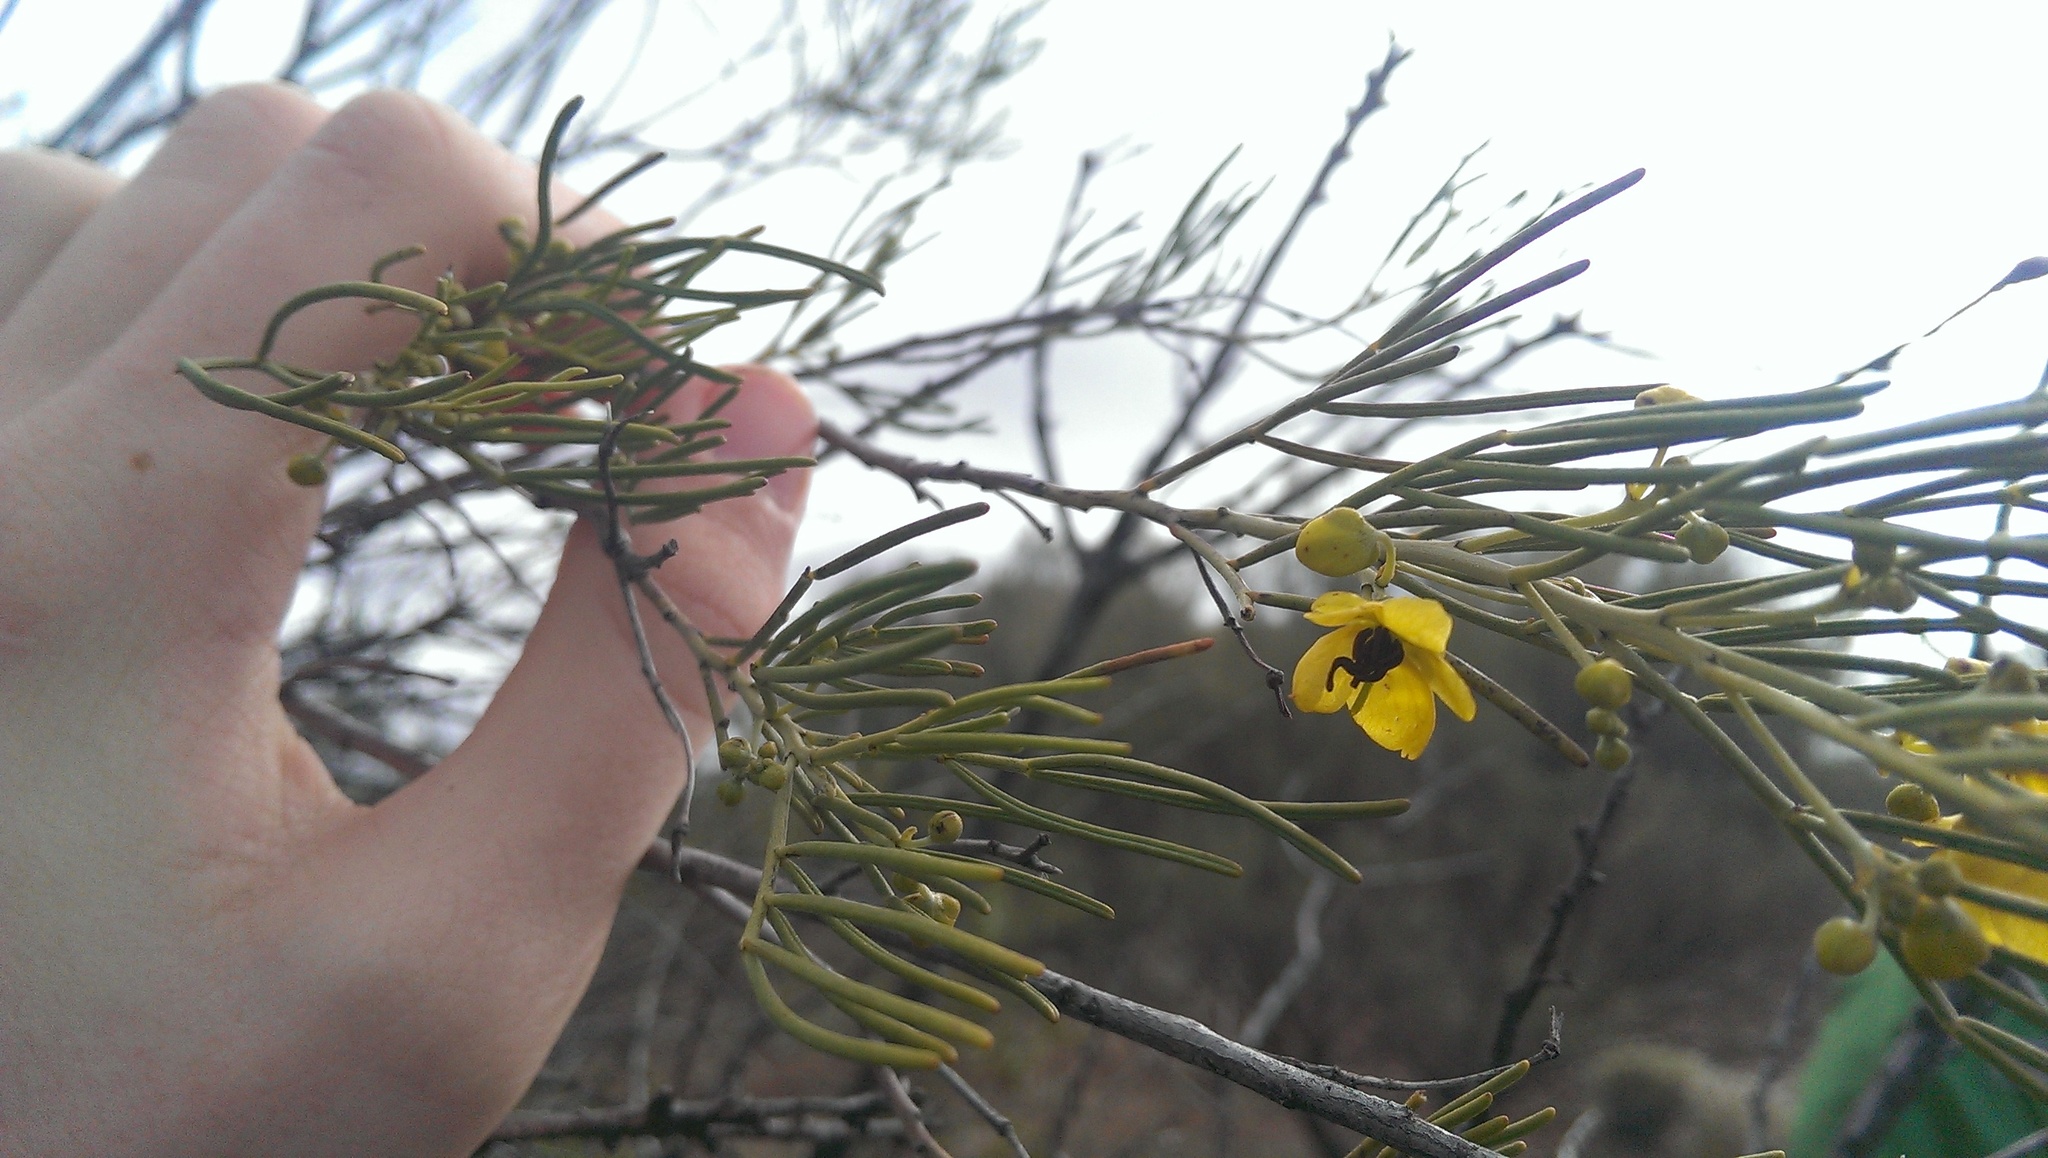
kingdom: Plantae
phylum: Tracheophyta
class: Magnoliopsida
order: Fabales
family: Fabaceae
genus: Senna
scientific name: Senna artemisioides
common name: Burnt-leaved acacia
